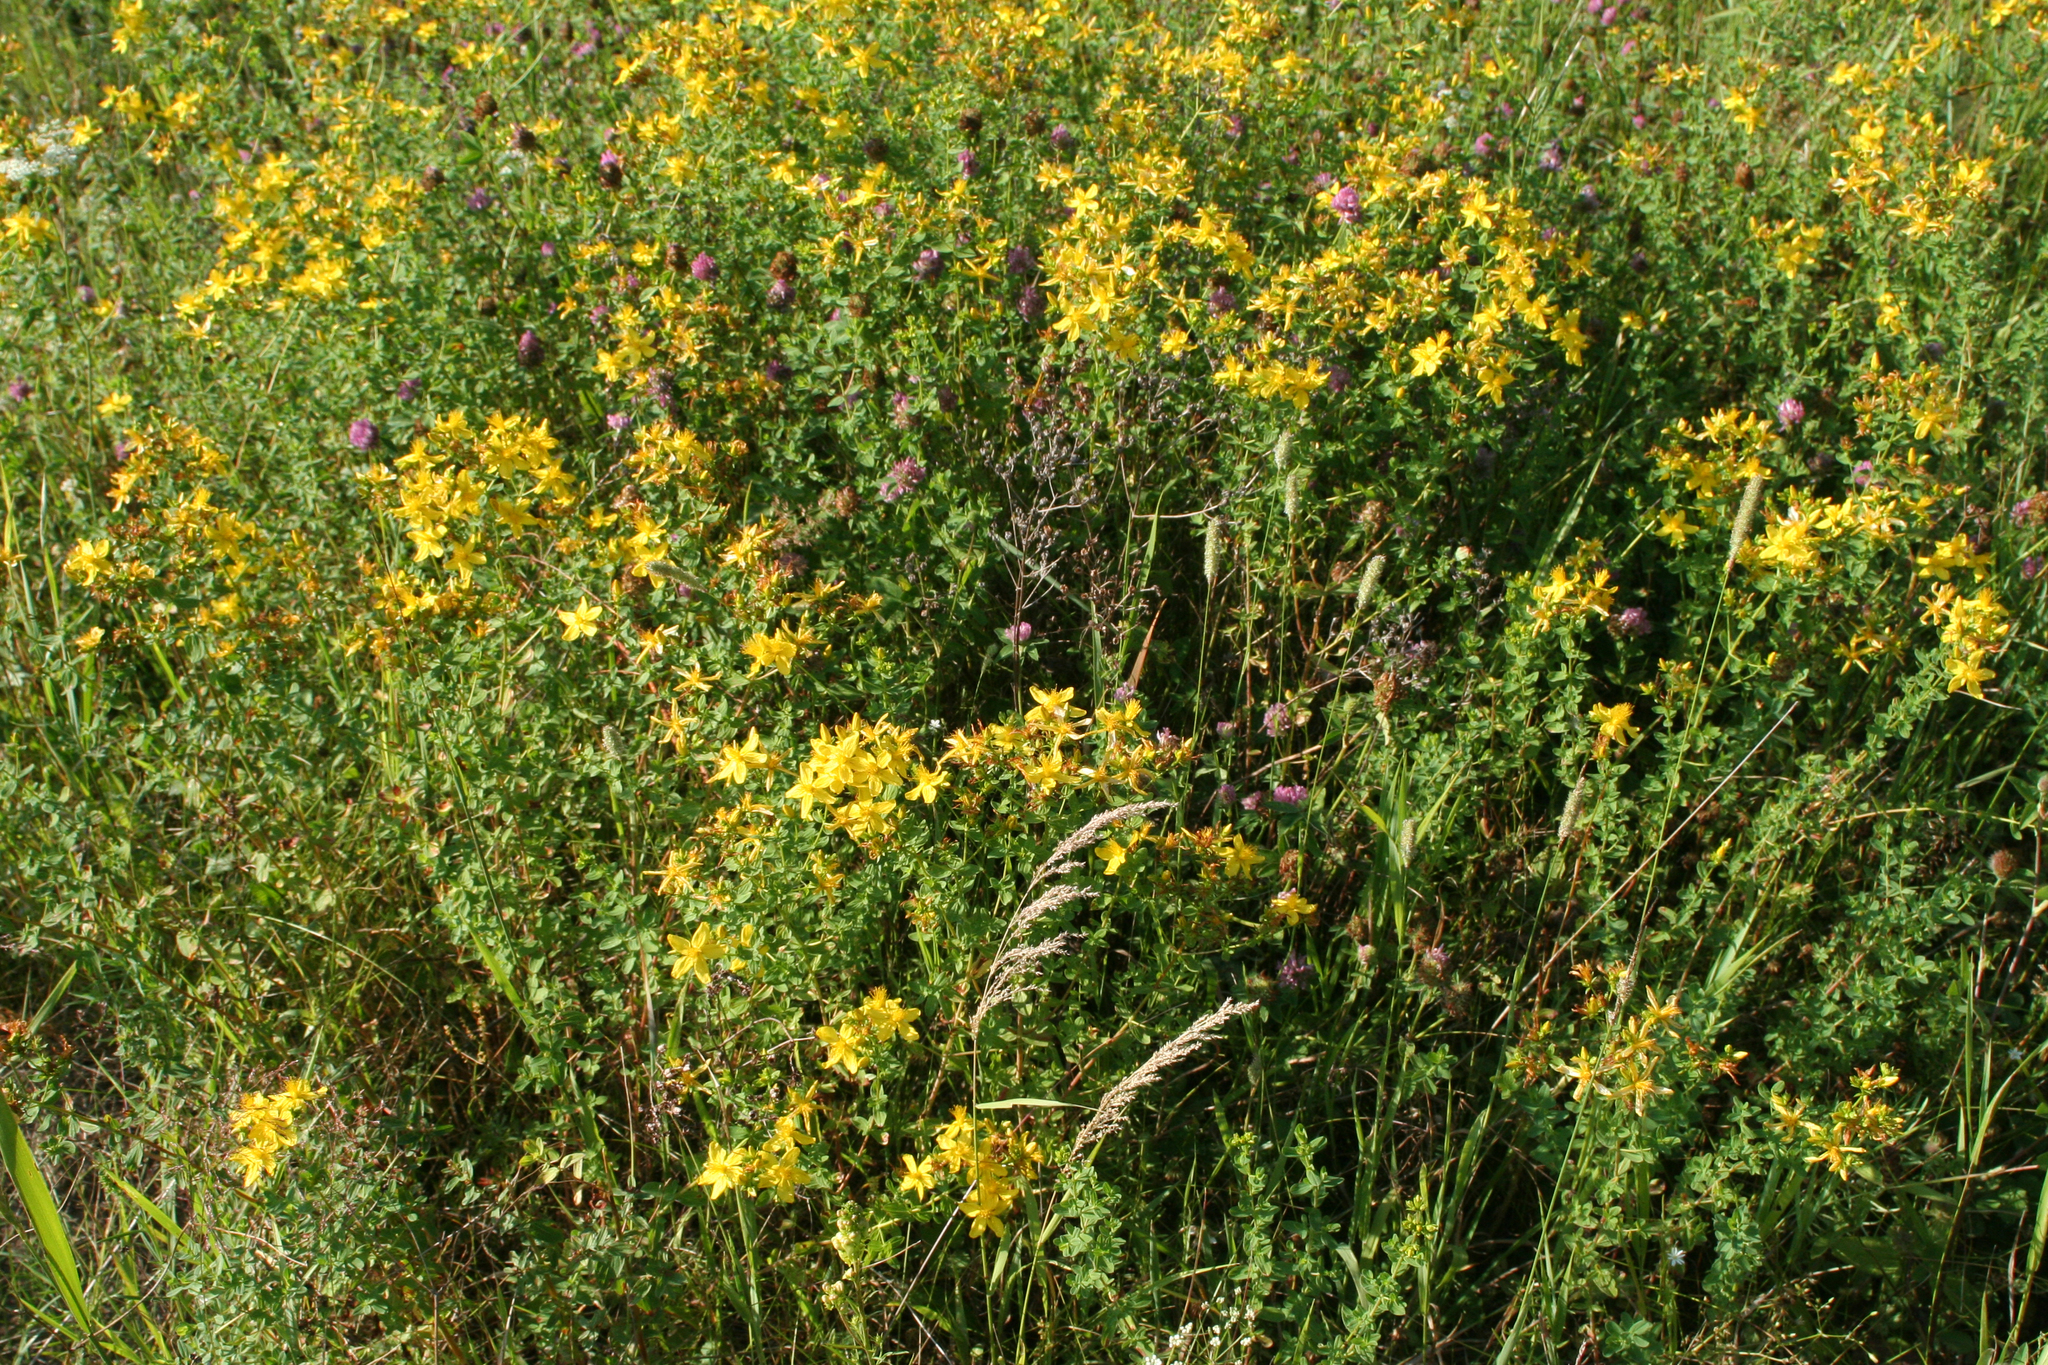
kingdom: Plantae
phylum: Tracheophyta
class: Magnoliopsida
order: Malpighiales
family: Hypericaceae
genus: Hypericum
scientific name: Hypericum perforatum
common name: Common st. johnswort
